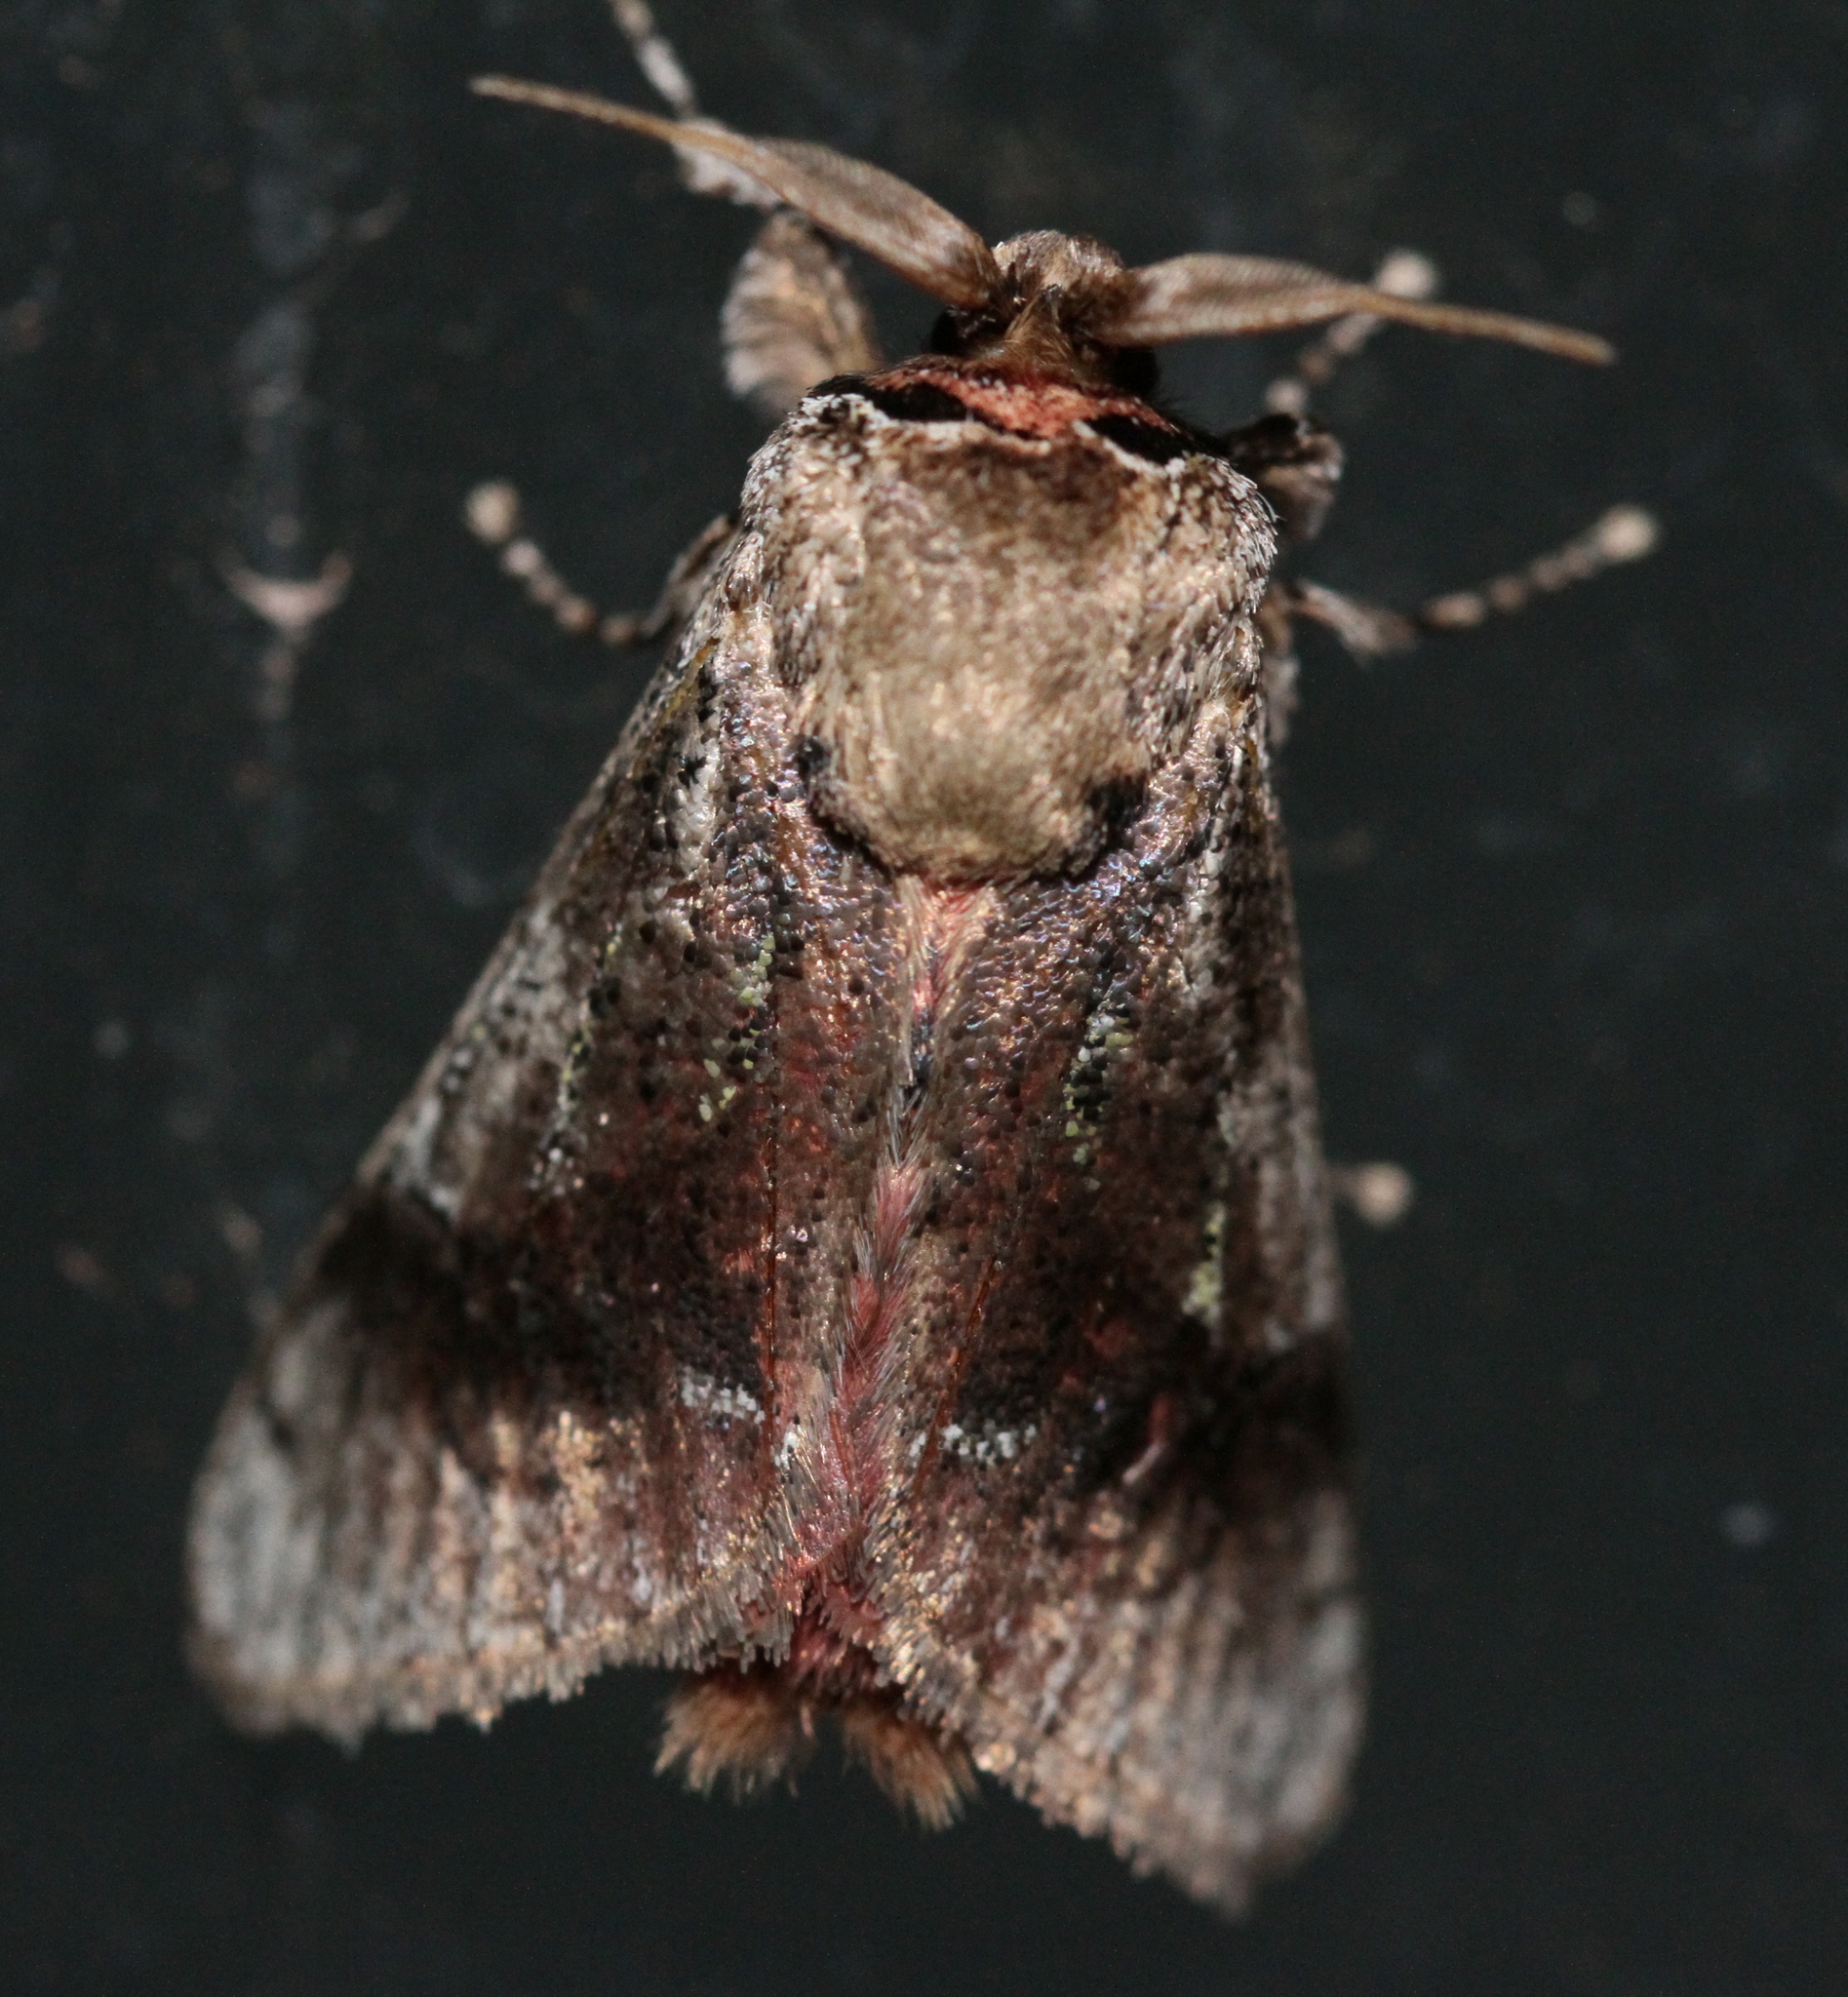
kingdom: Animalia
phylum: Arthropoda
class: Insecta
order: Lepidoptera
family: Aididae
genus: Aidos
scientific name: Aidos yamouna
